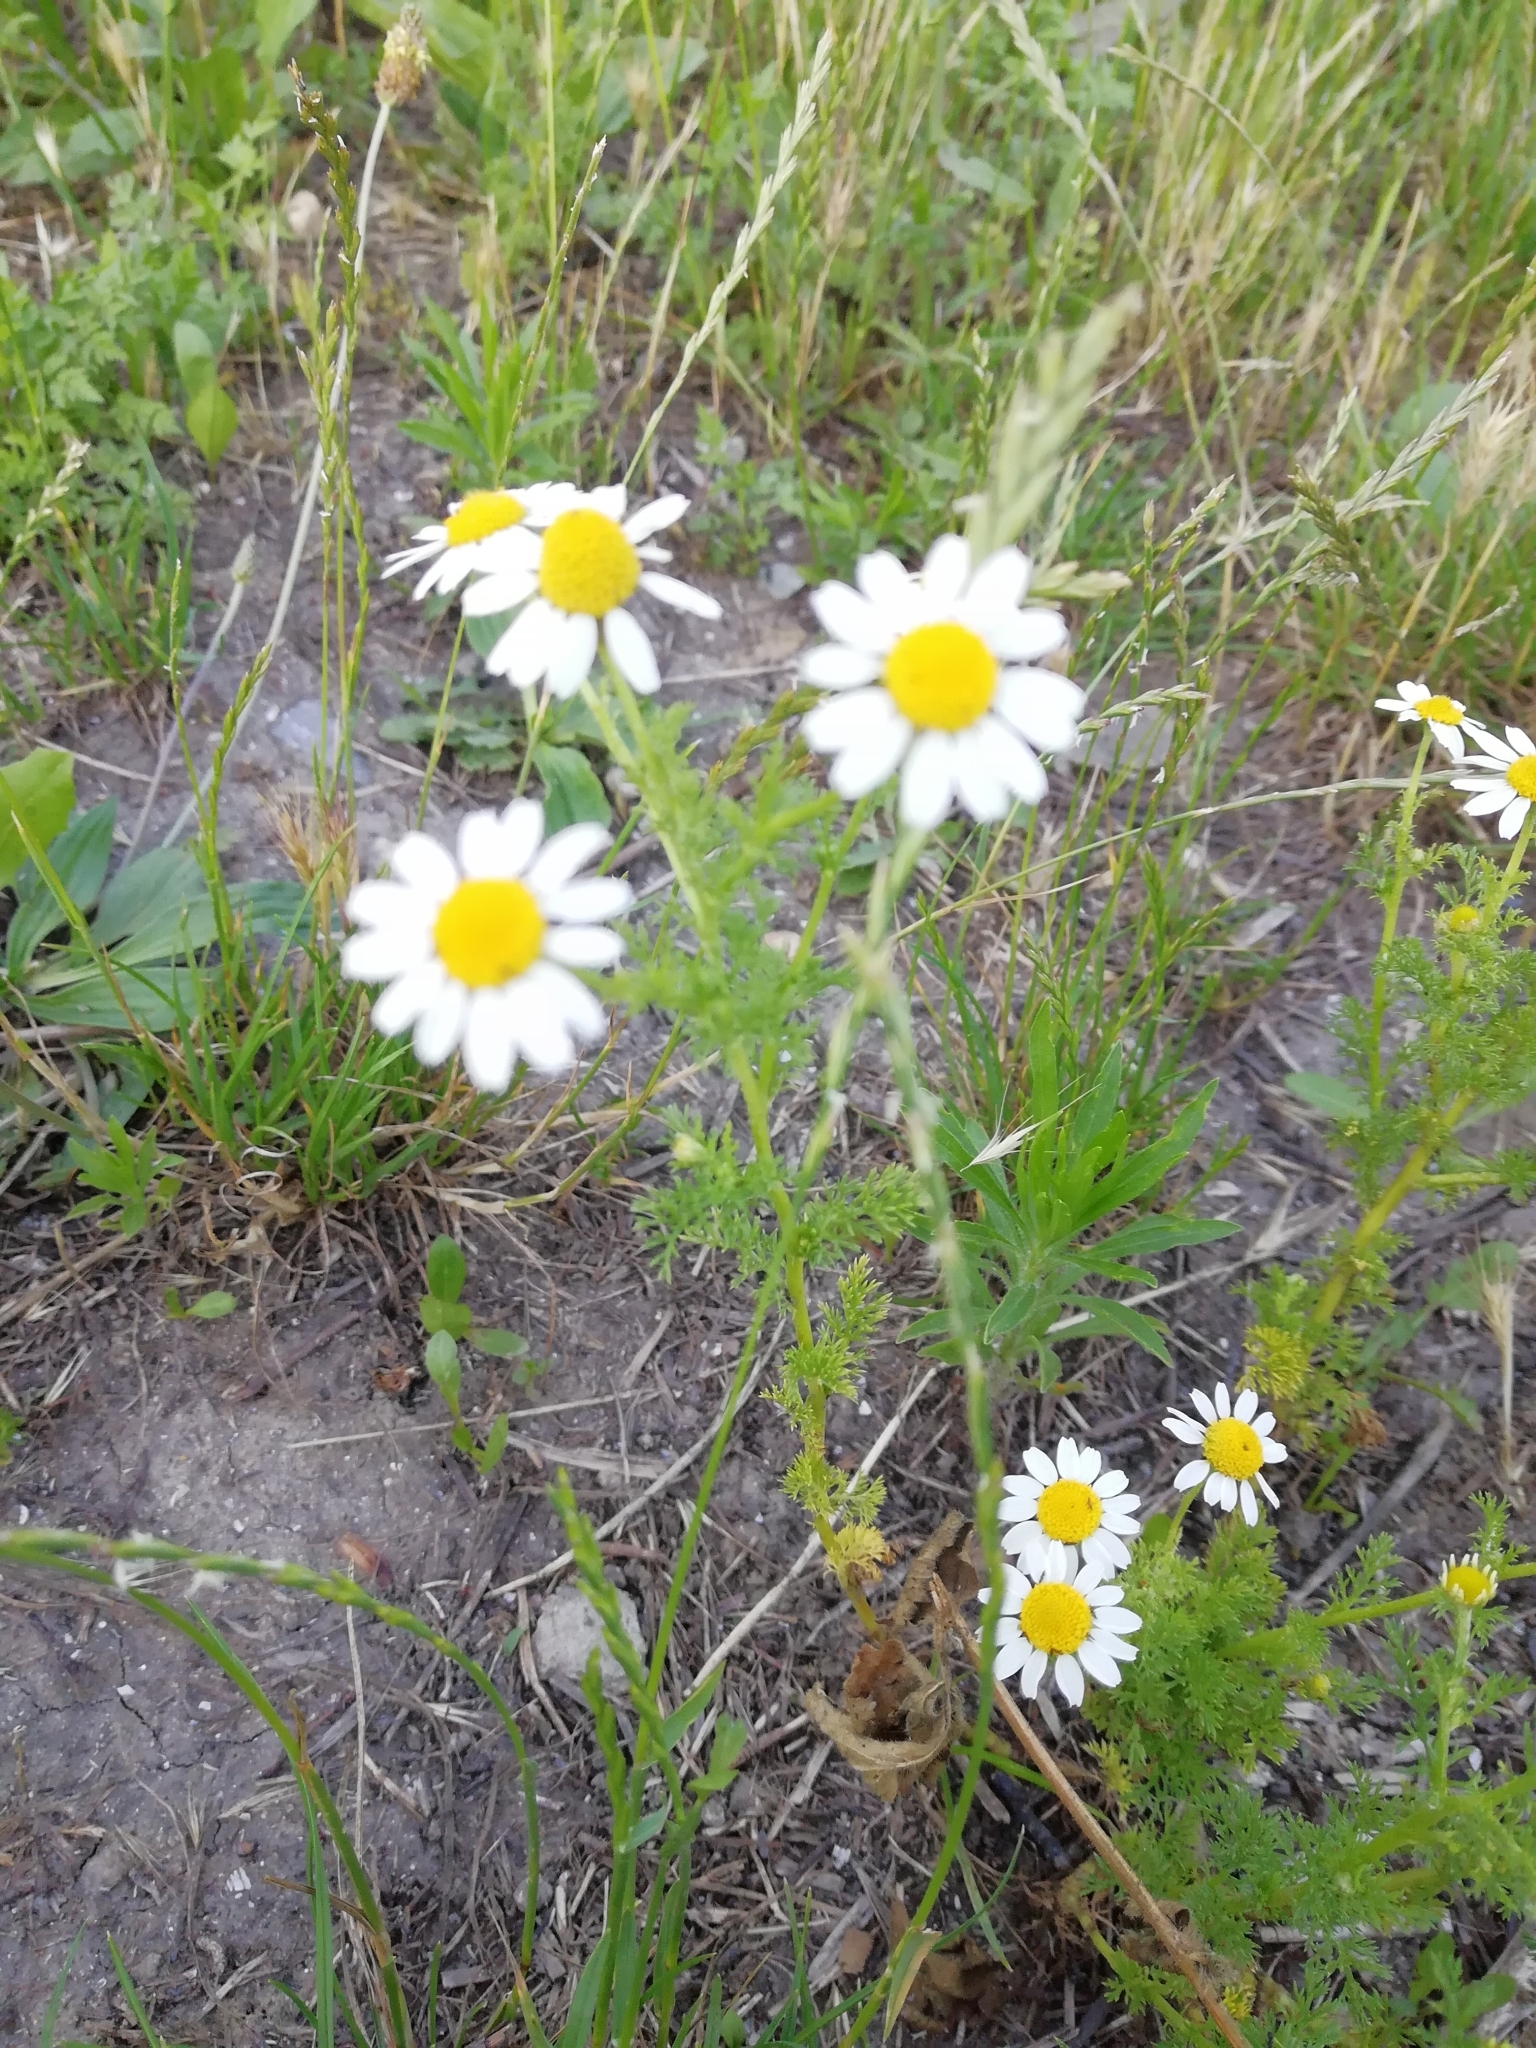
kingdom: Plantae
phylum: Tracheophyta
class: Magnoliopsida
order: Asterales
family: Asteraceae
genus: Tripleurospermum
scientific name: Tripleurospermum inodorum
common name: Scentless mayweed
